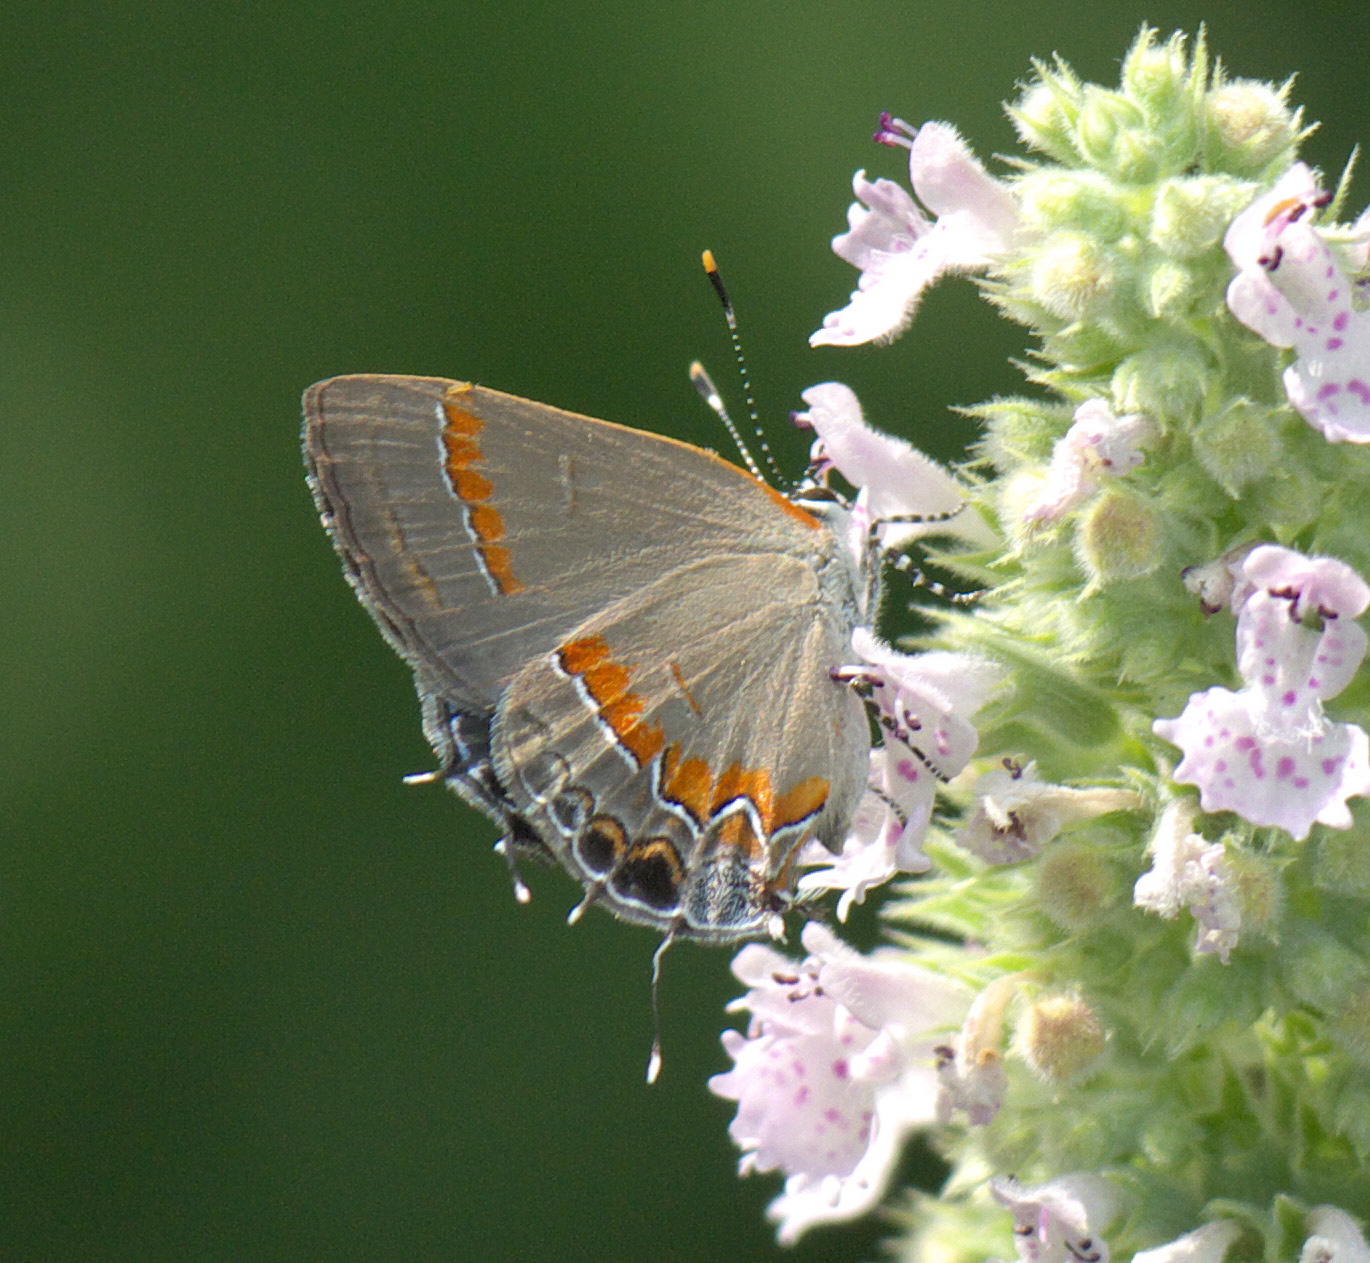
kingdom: Animalia
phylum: Arthropoda
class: Insecta
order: Lepidoptera
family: Lycaenidae
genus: Calycopis
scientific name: Calycopis cecrops
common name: Red-banded hairstreak
